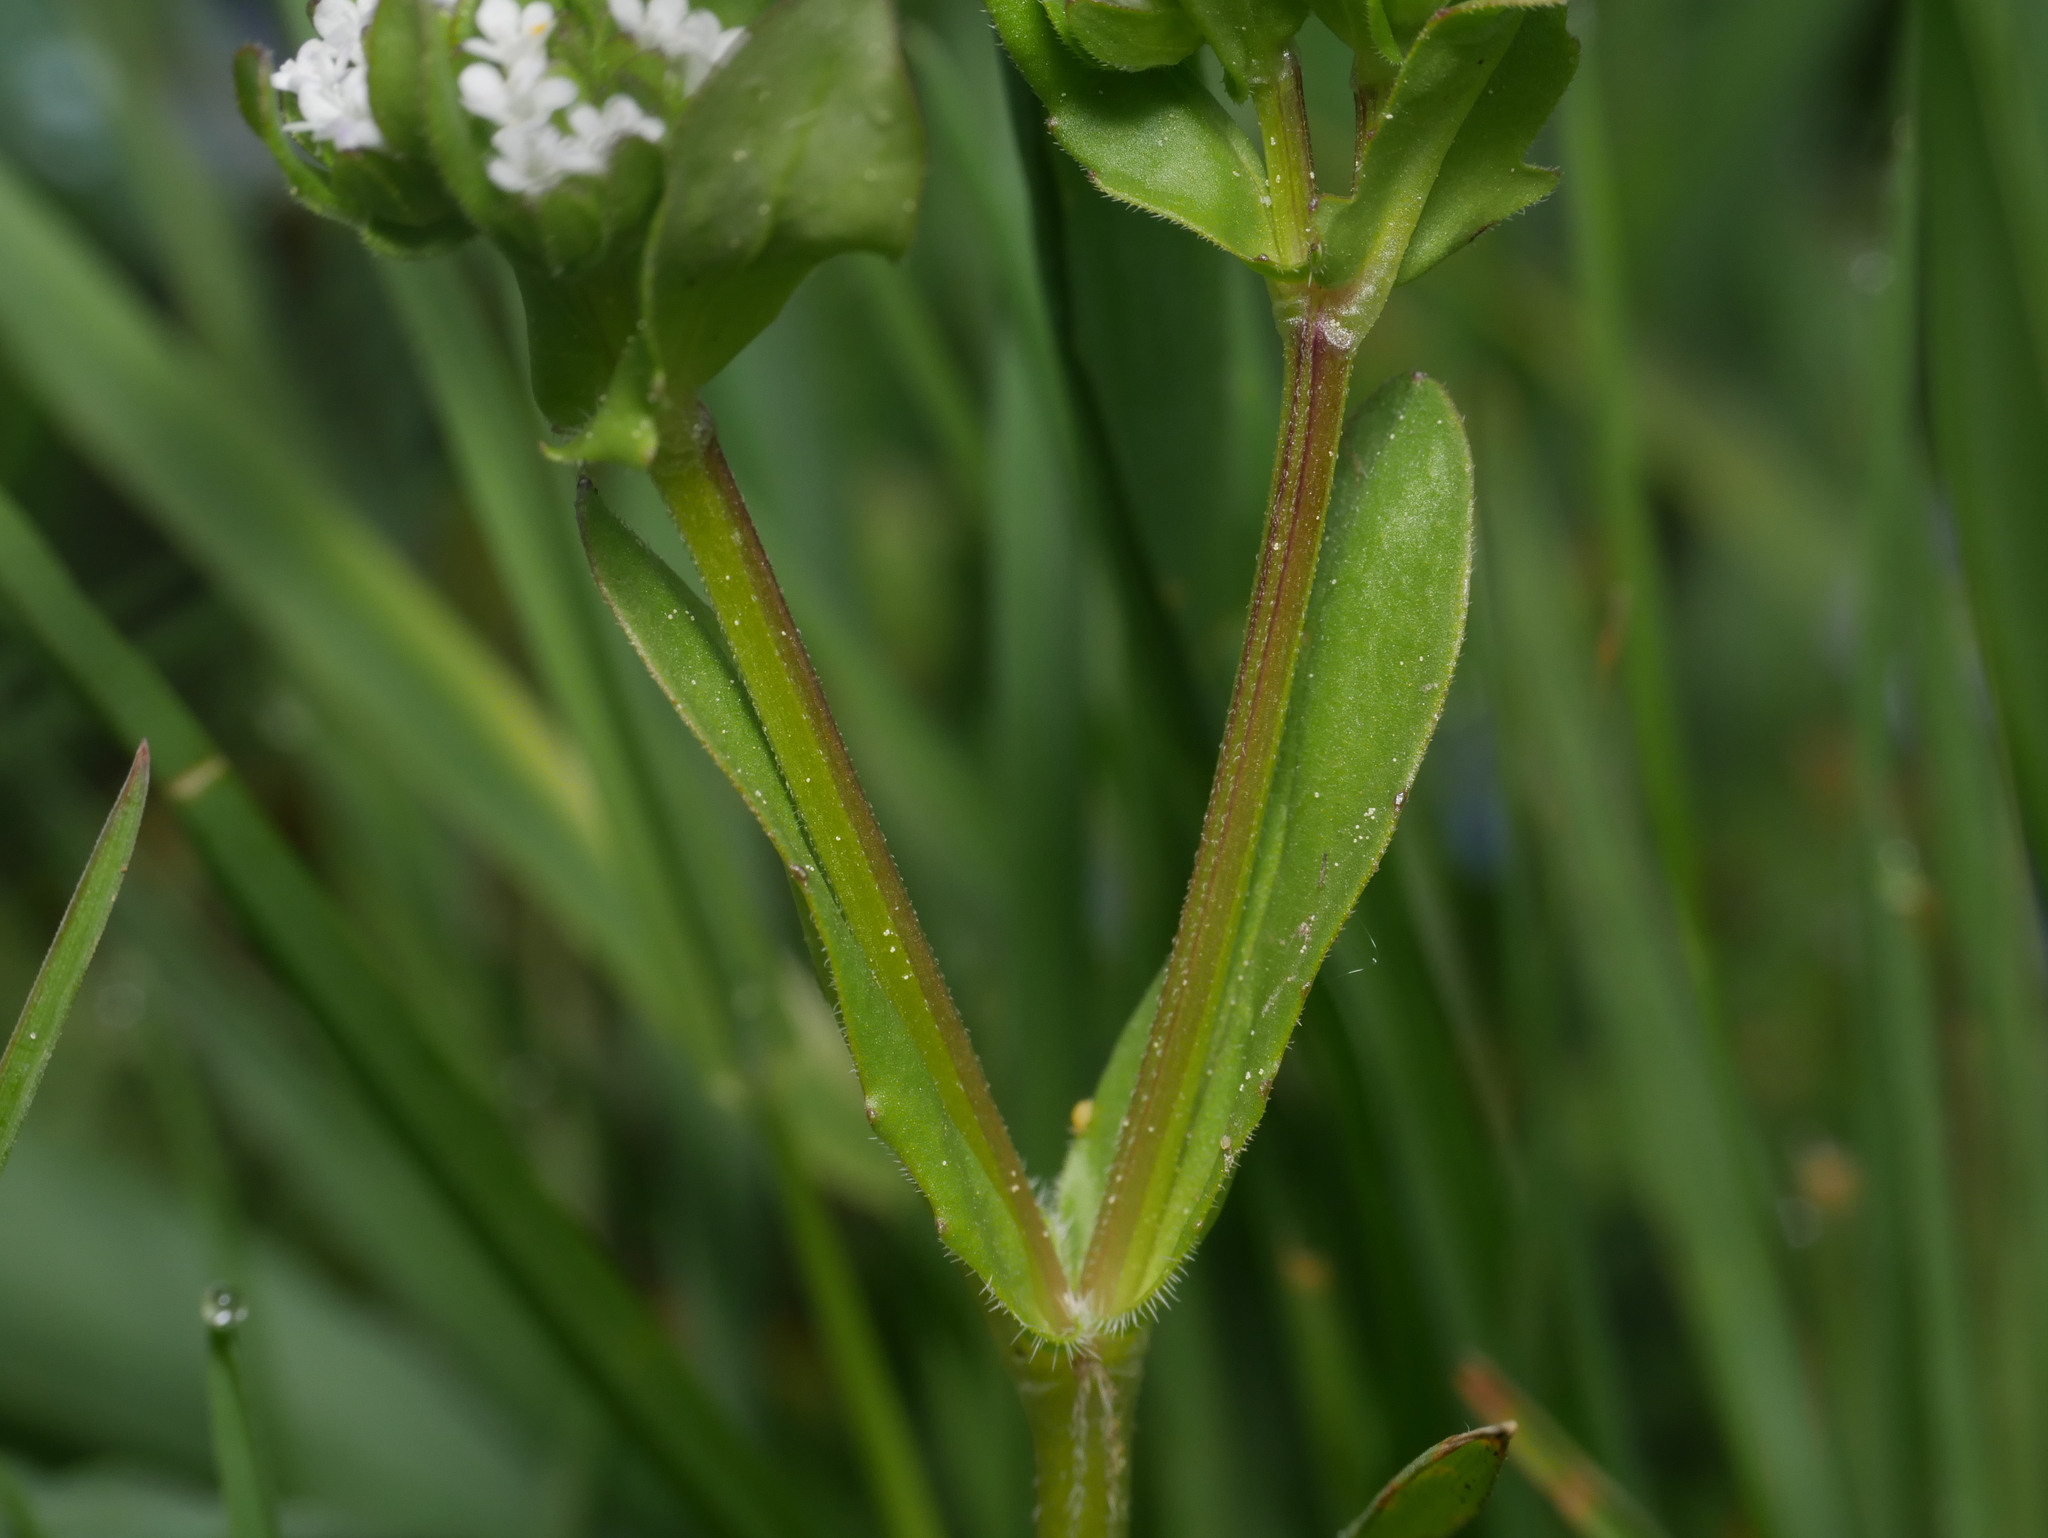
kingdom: Plantae
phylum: Tracheophyta
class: Magnoliopsida
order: Dipsacales
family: Caprifoliaceae
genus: Valerianella
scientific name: Valerianella
